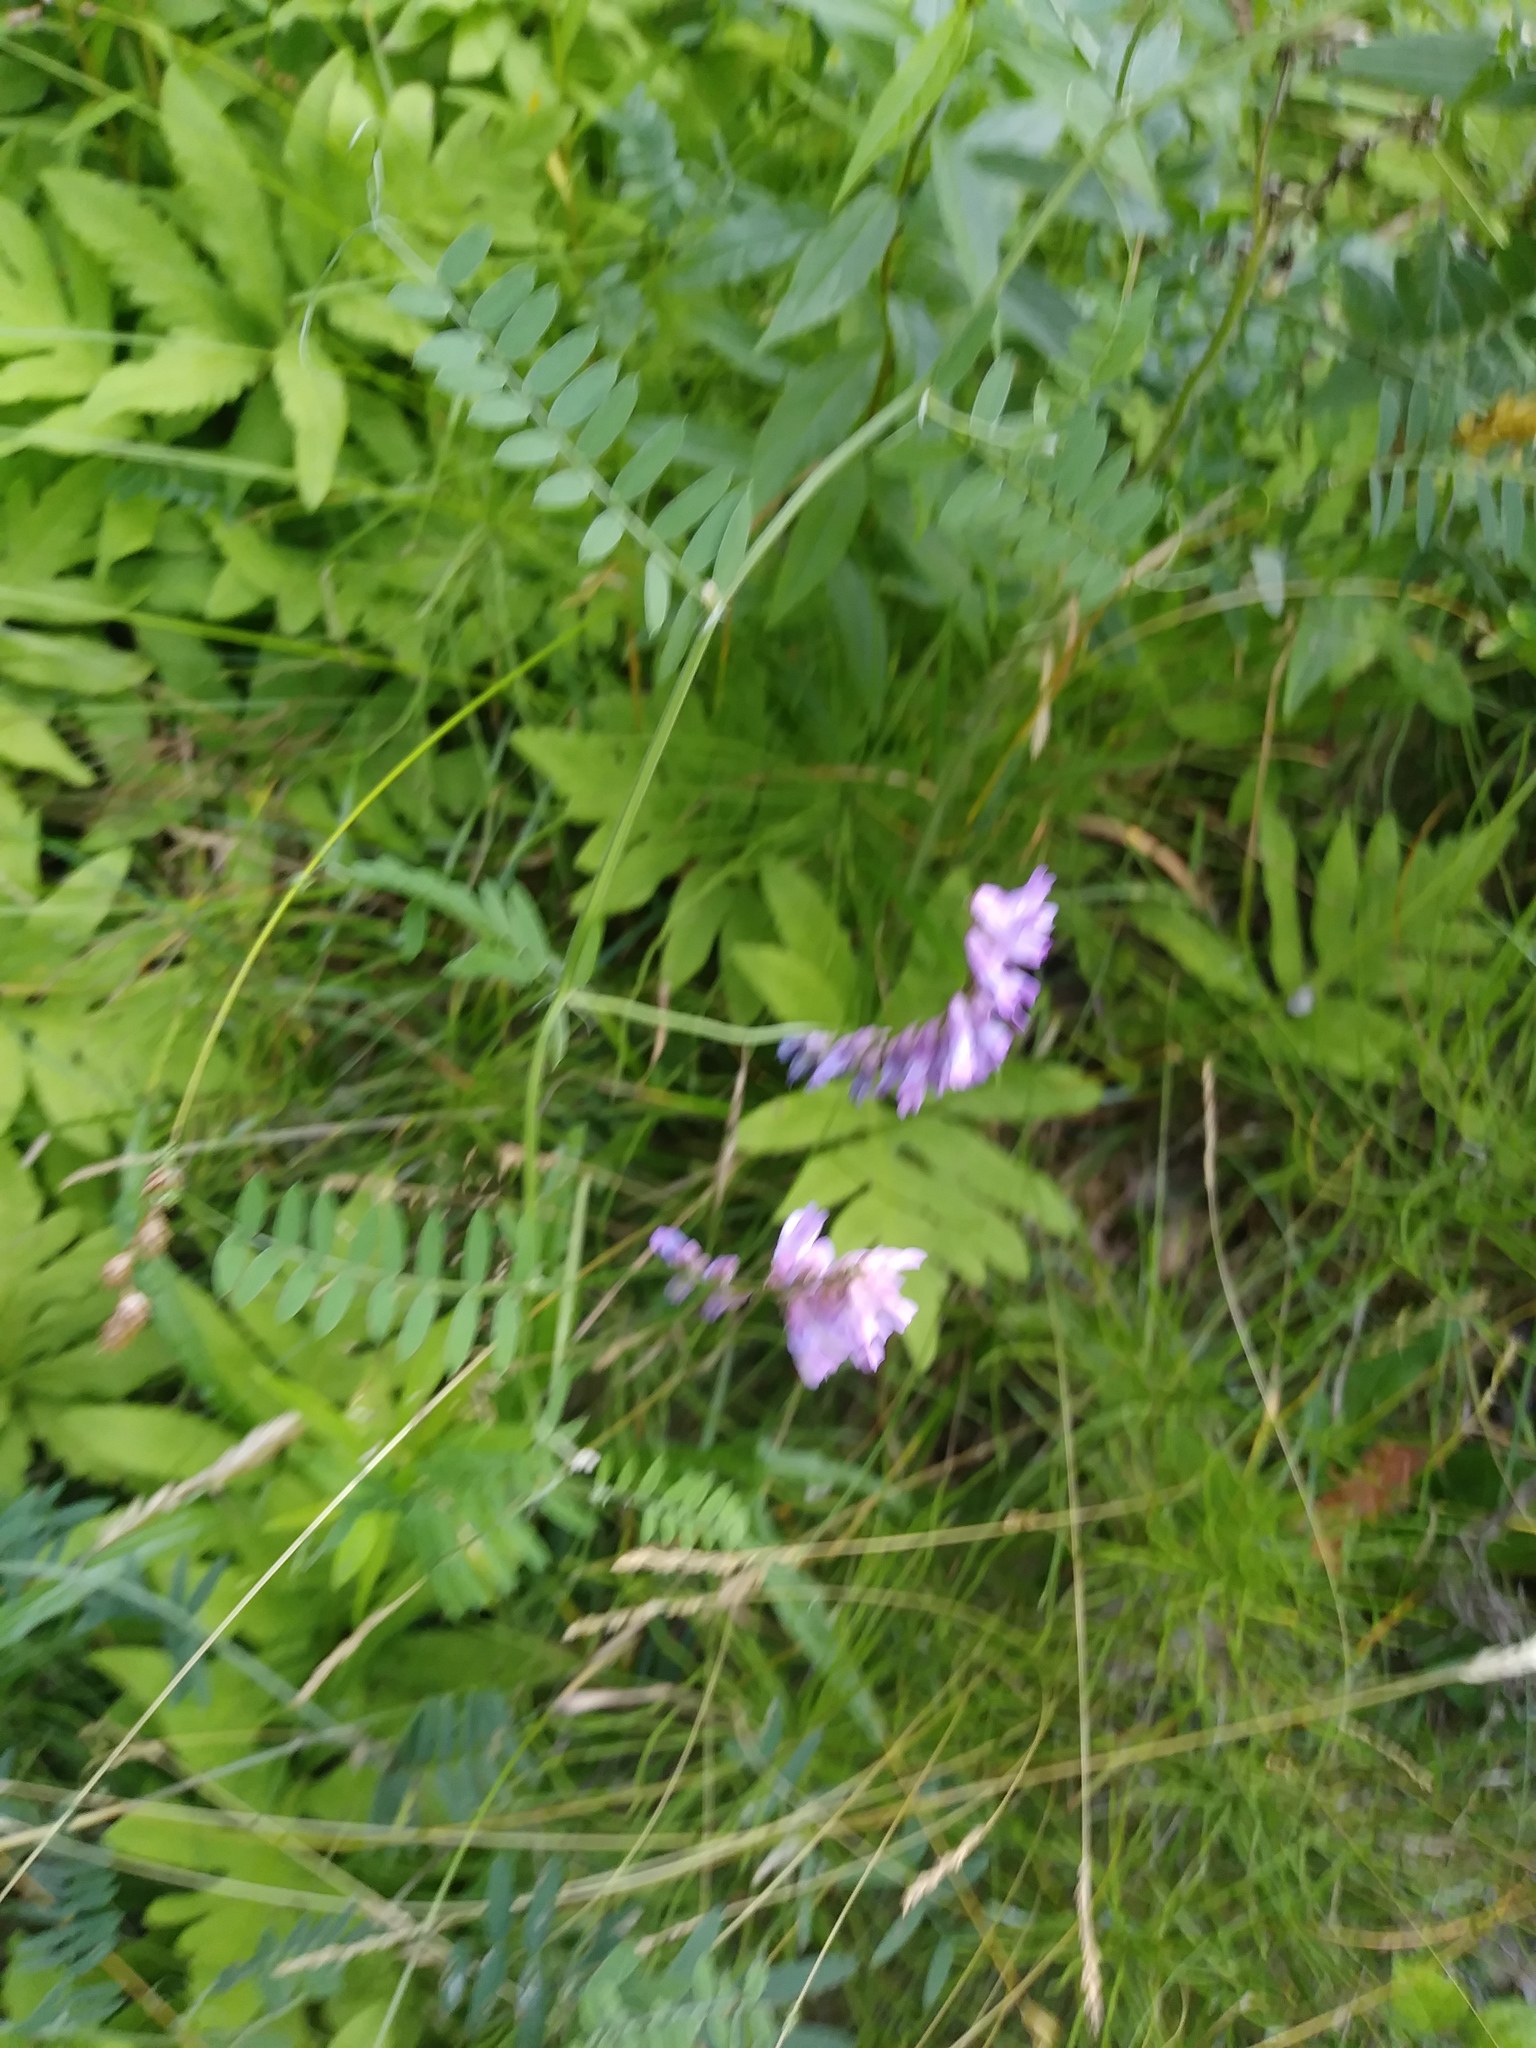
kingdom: Plantae
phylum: Tracheophyta
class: Magnoliopsida
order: Fabales
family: Fabaceae
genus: Vicia
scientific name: Vicia cracca
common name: Bird vetch
